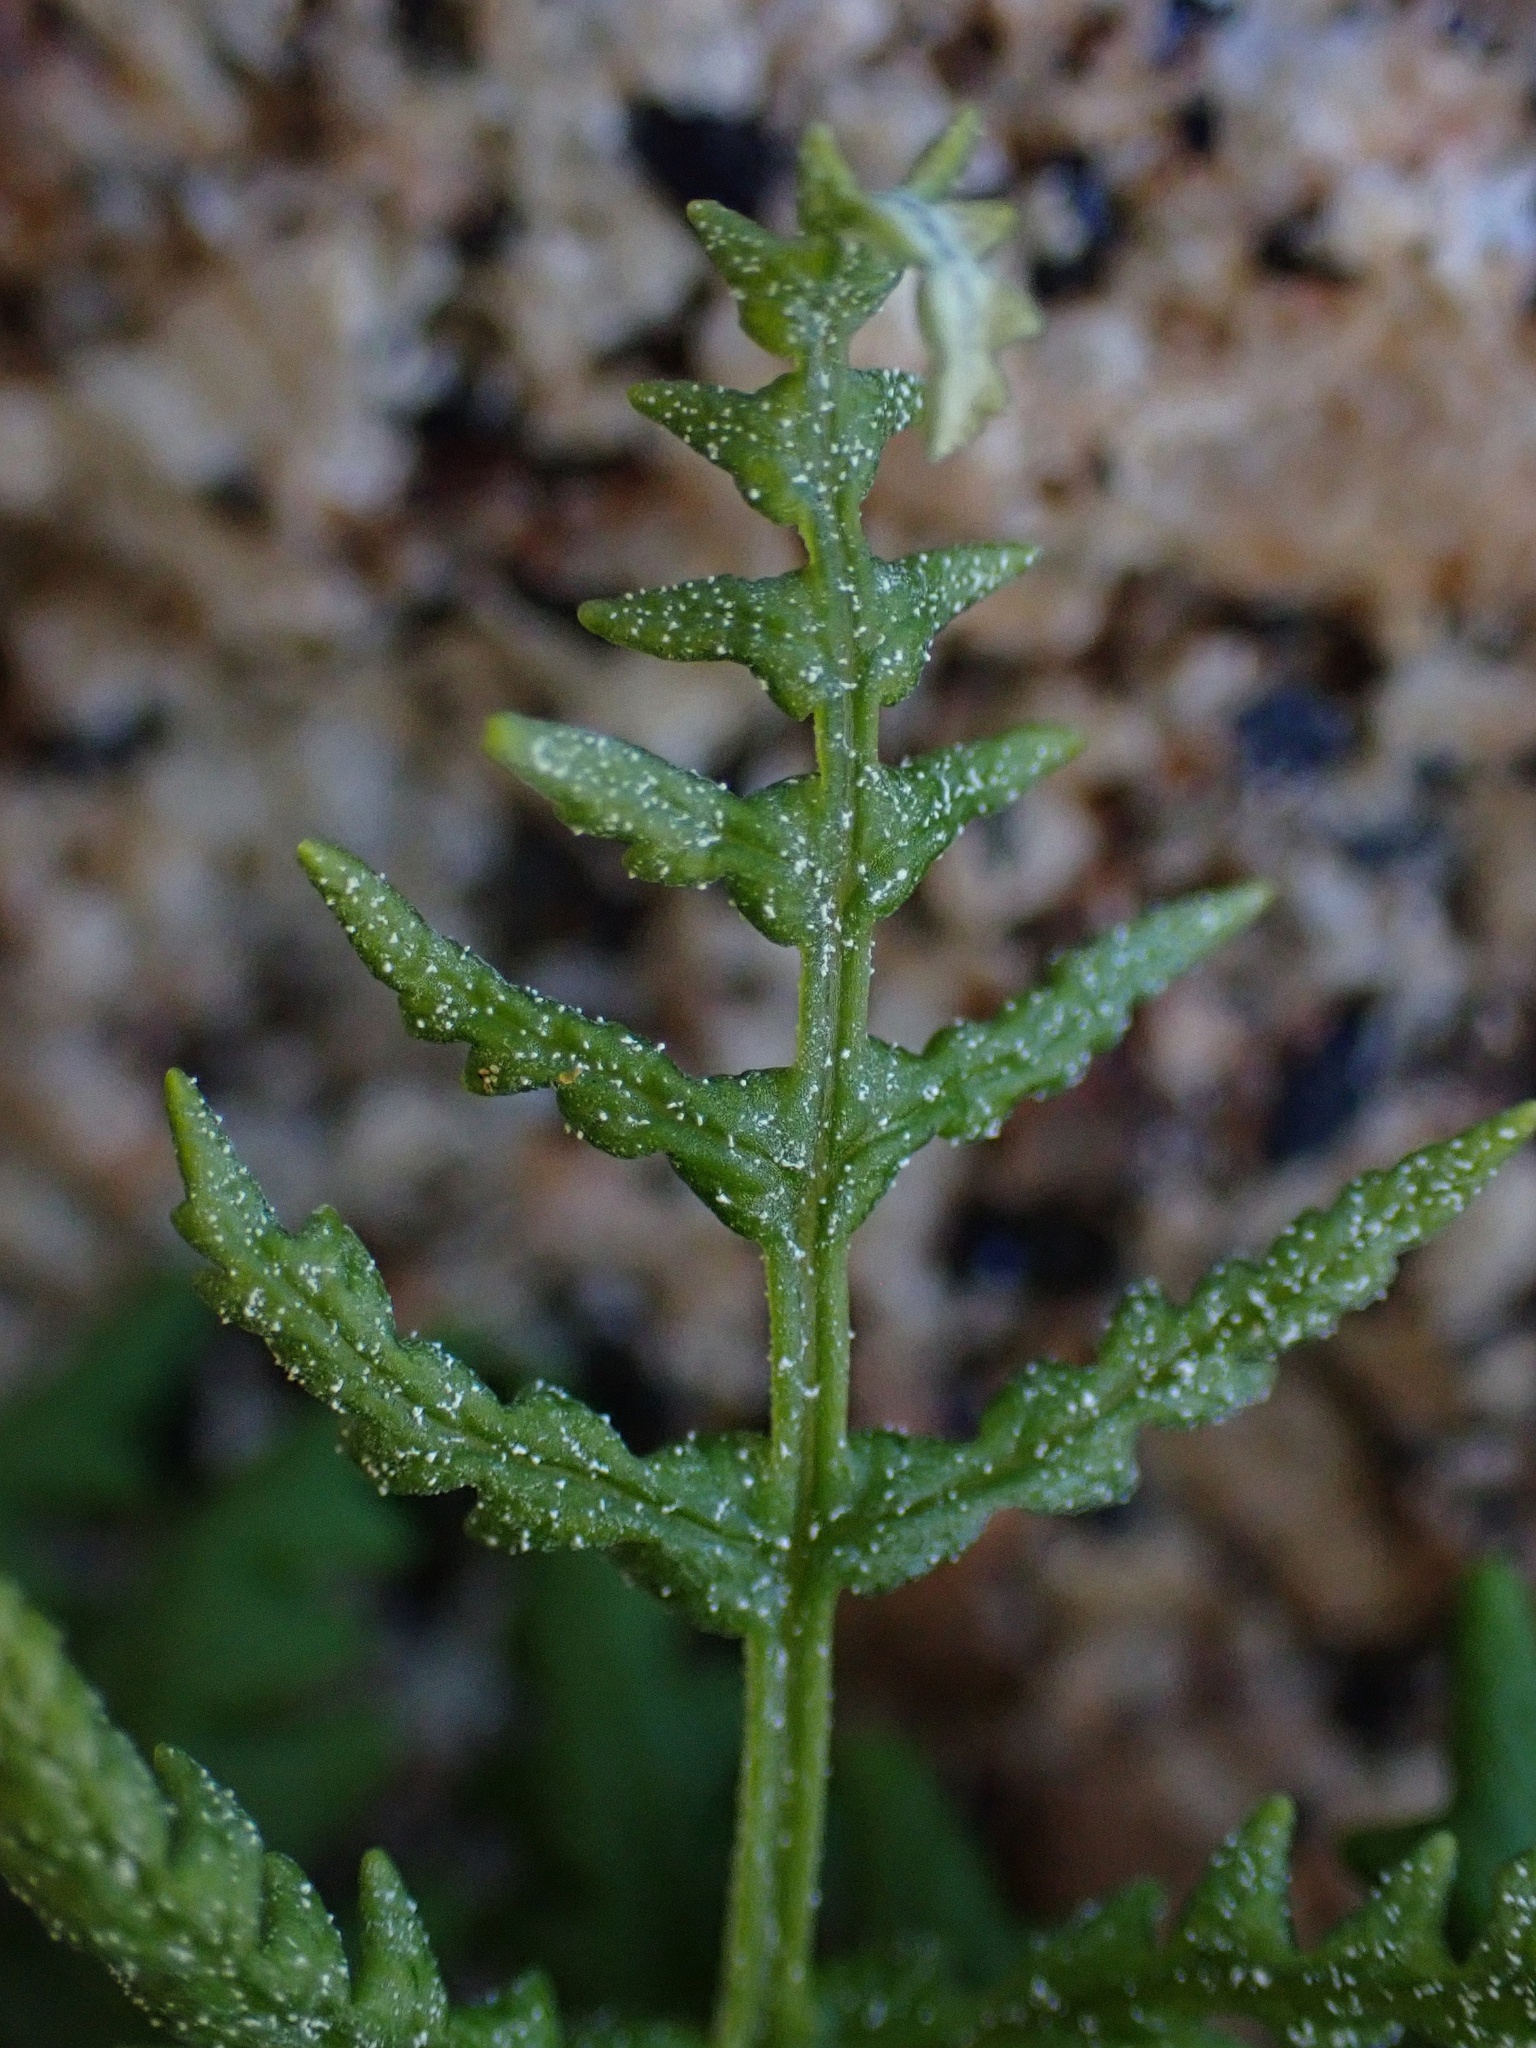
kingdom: Plantae
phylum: Tracheophyta
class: Polypodiopsida
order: Polypodiales
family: Pteridaceae
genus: Pentagramma
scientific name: Pentagramma rebmanii
